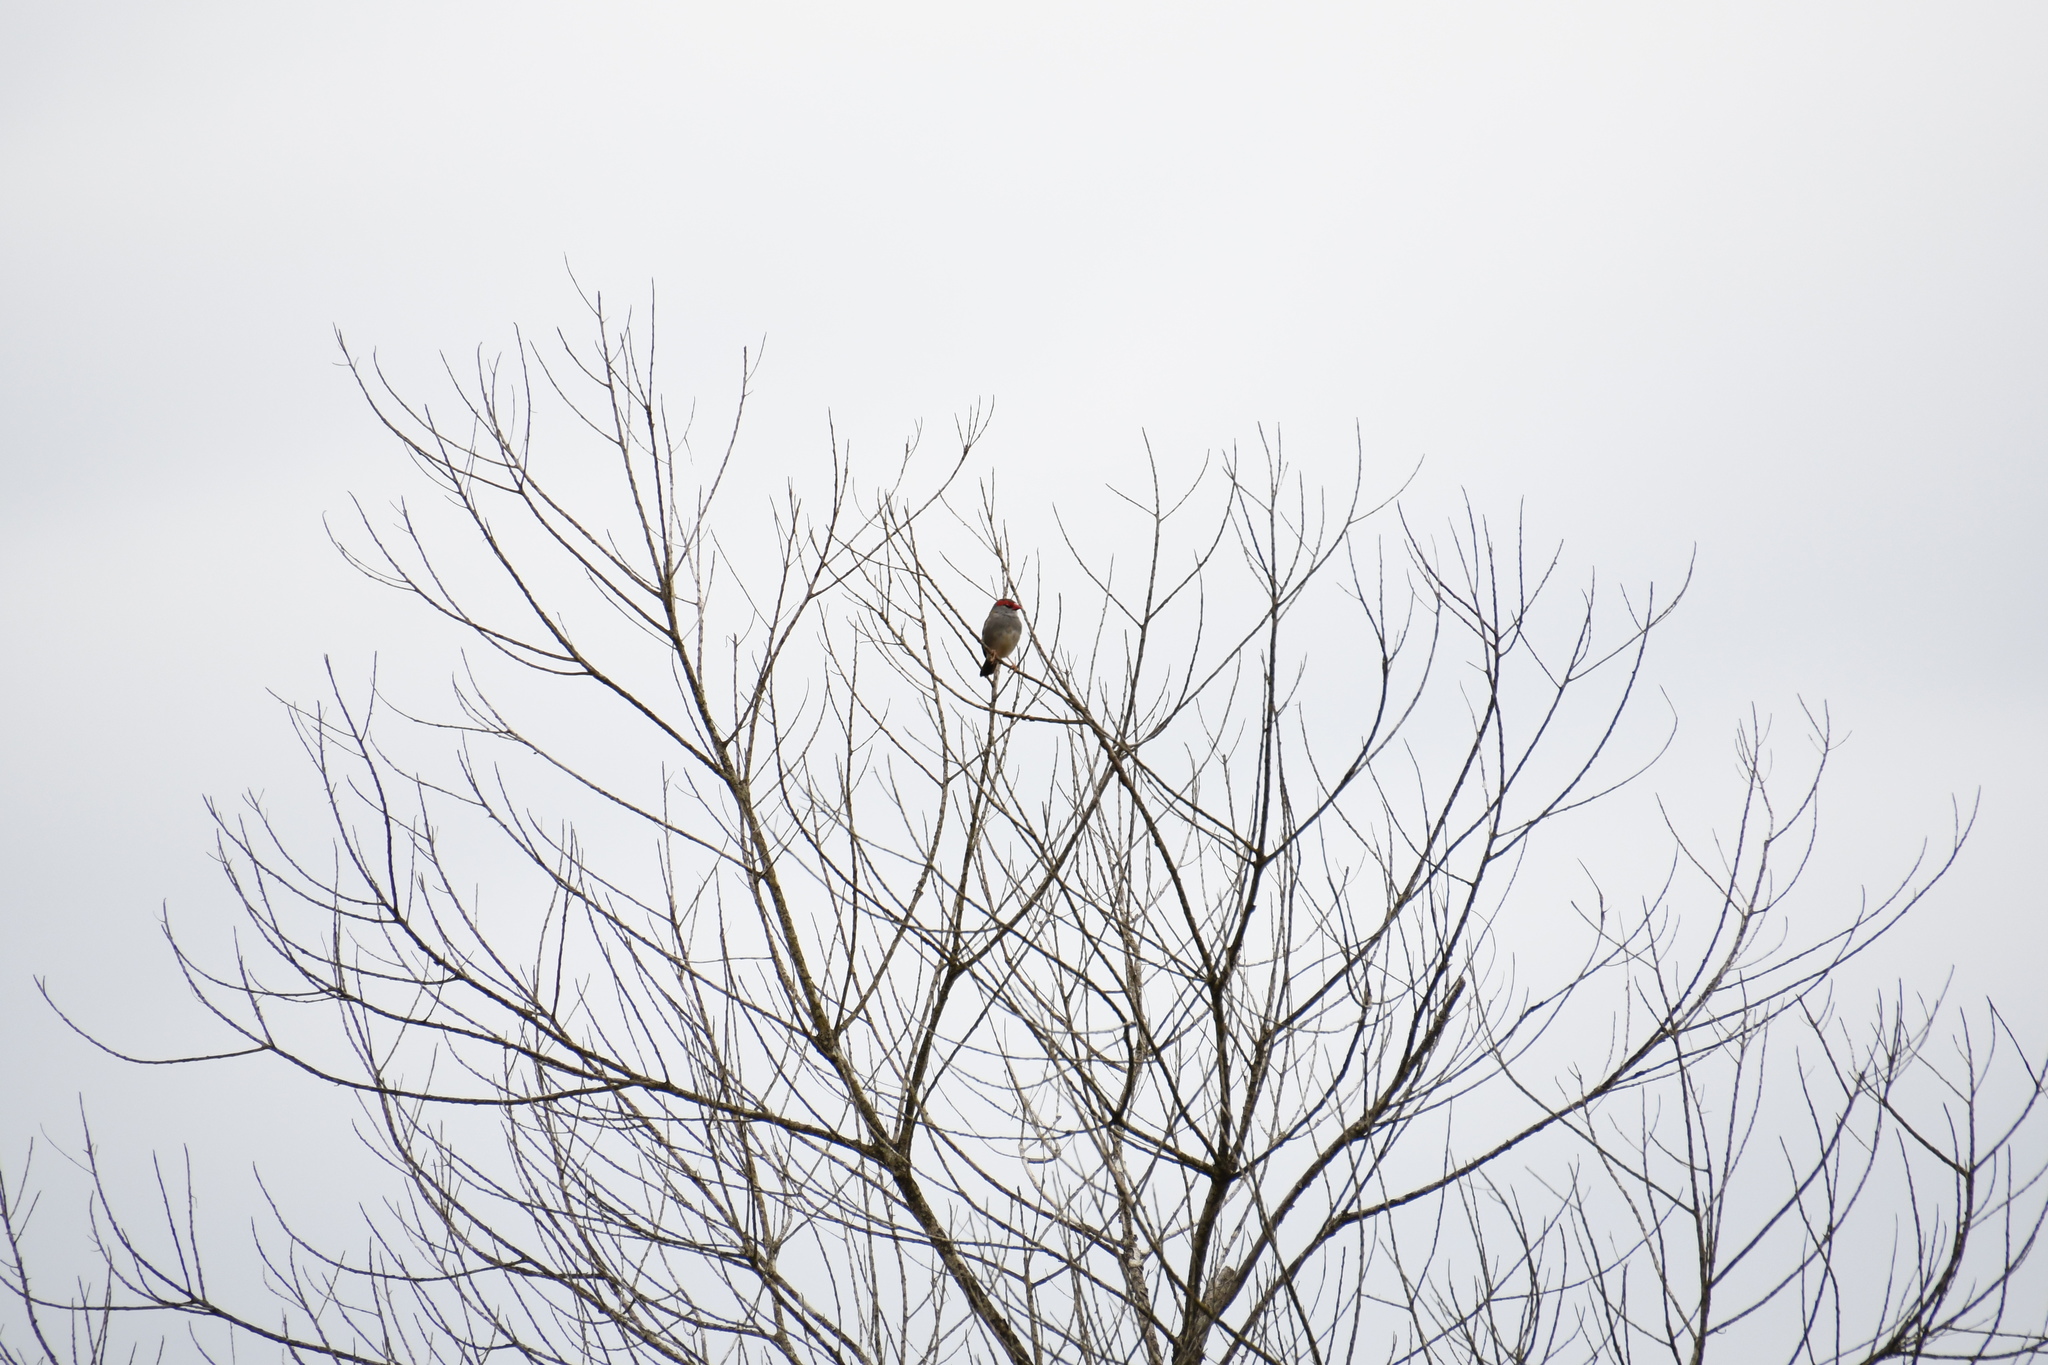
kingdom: Animalia
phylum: Chordata
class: Aves
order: Passeriformes
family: Estrildidae
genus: Neochmia
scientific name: Neochmia temporalis
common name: Red-browed finch
